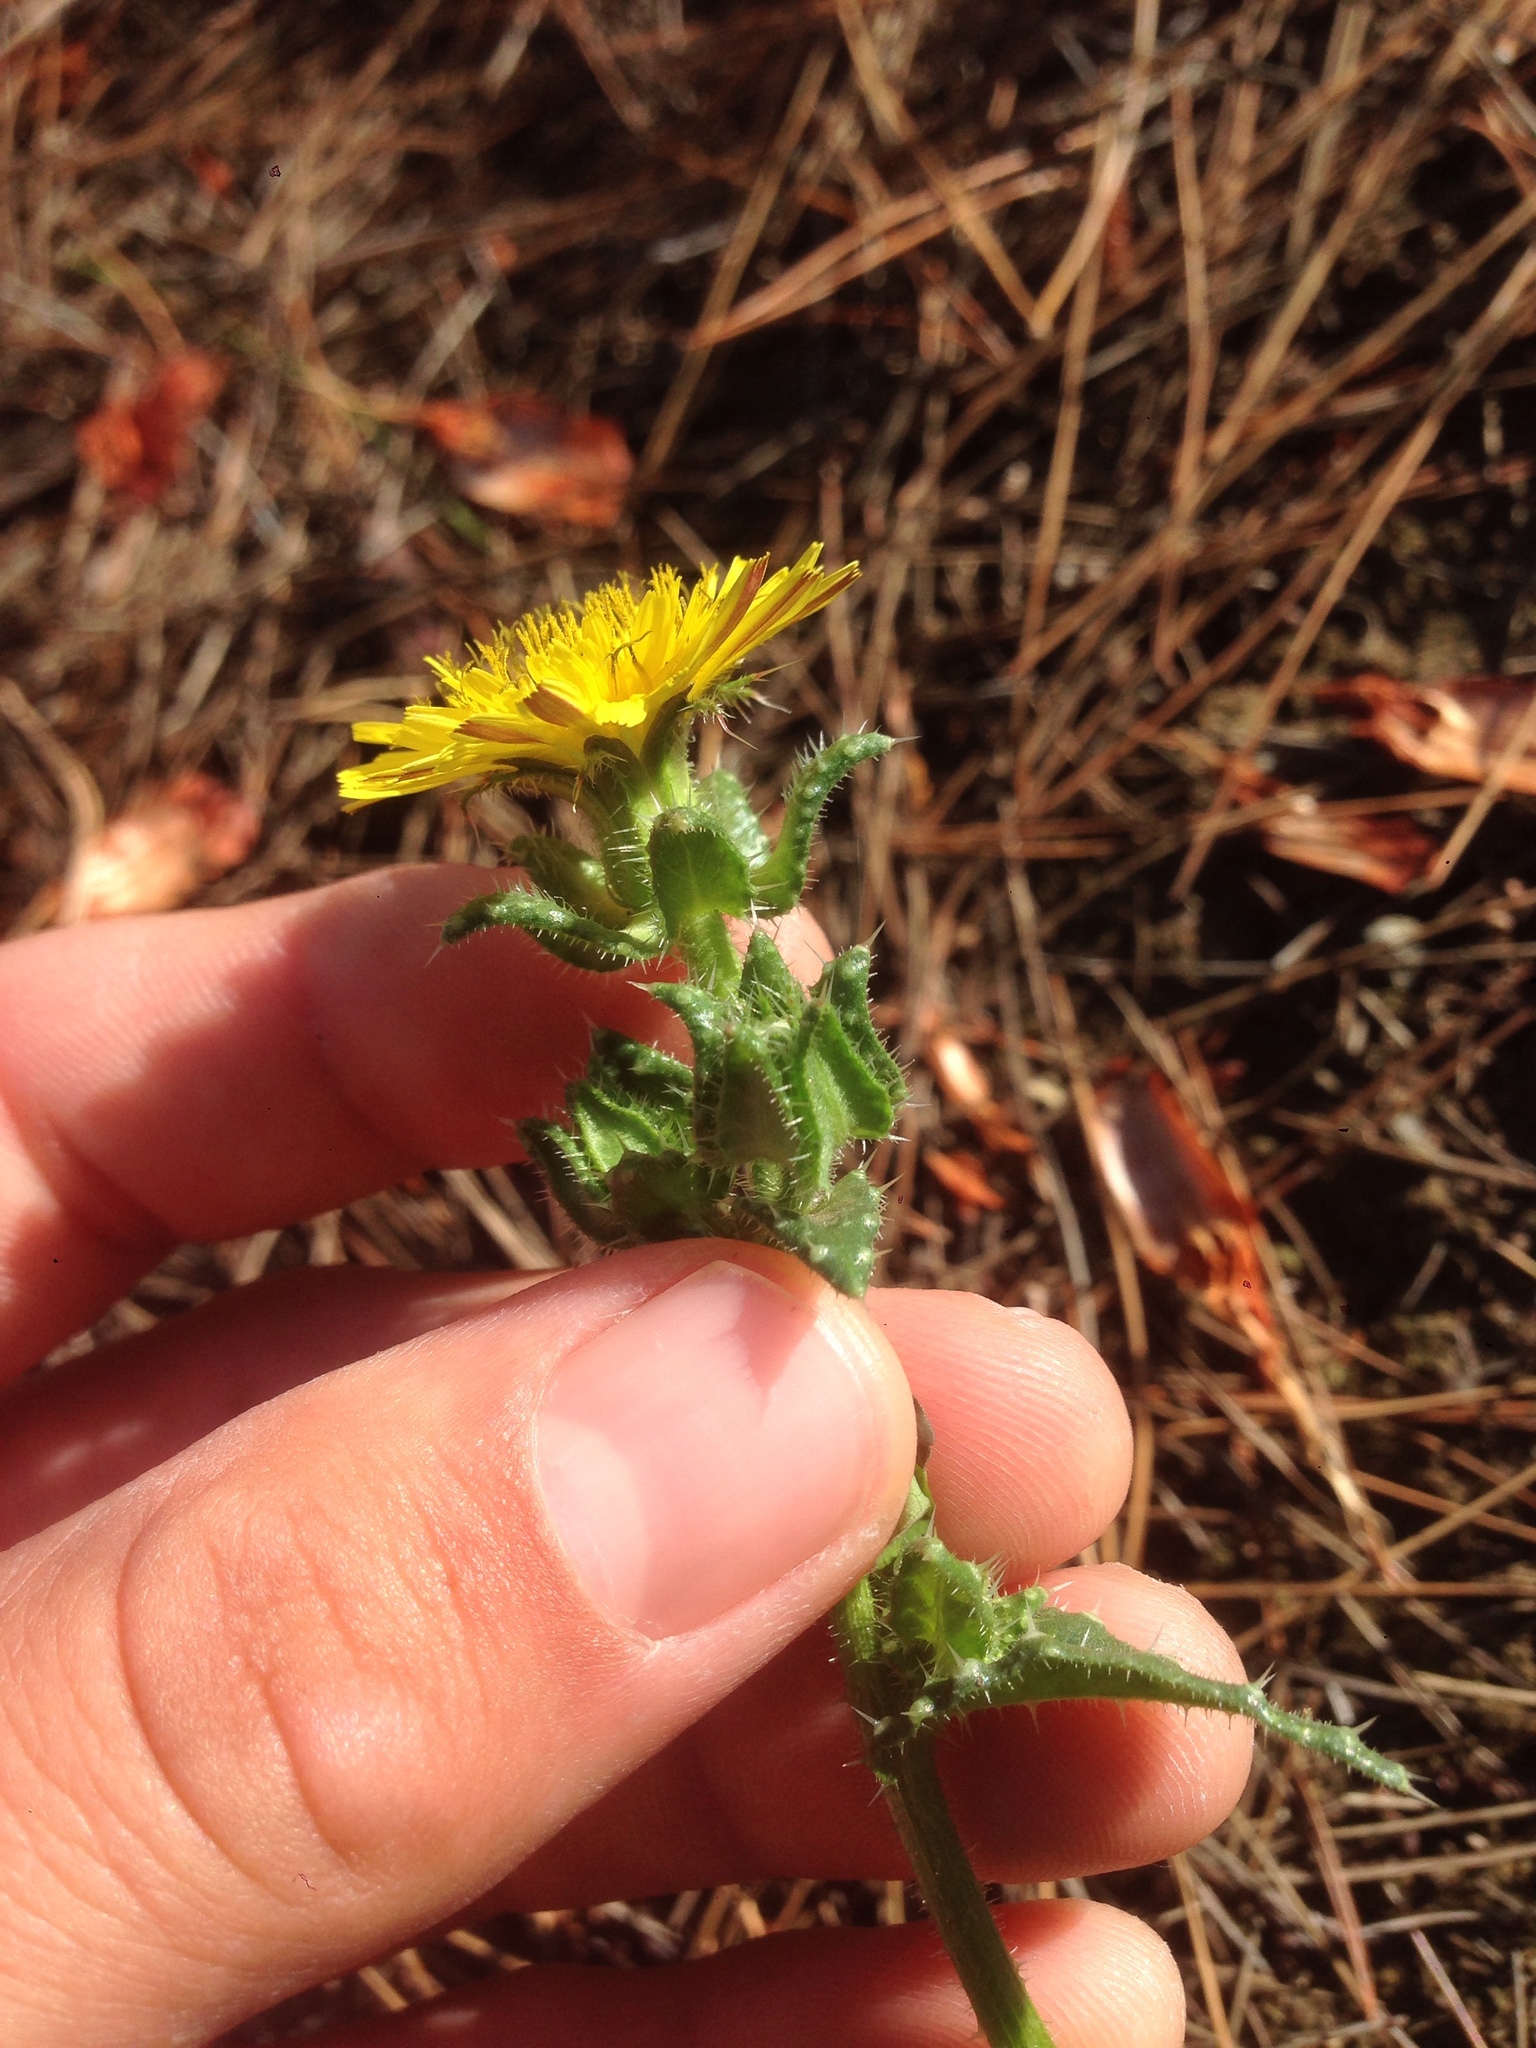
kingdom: Plantae
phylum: Tracheophyta
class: Magnoliopsida
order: Asterales
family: Asteraceae
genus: Helminthotheca
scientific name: Helminthotheca echioides
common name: Ox-tongue
